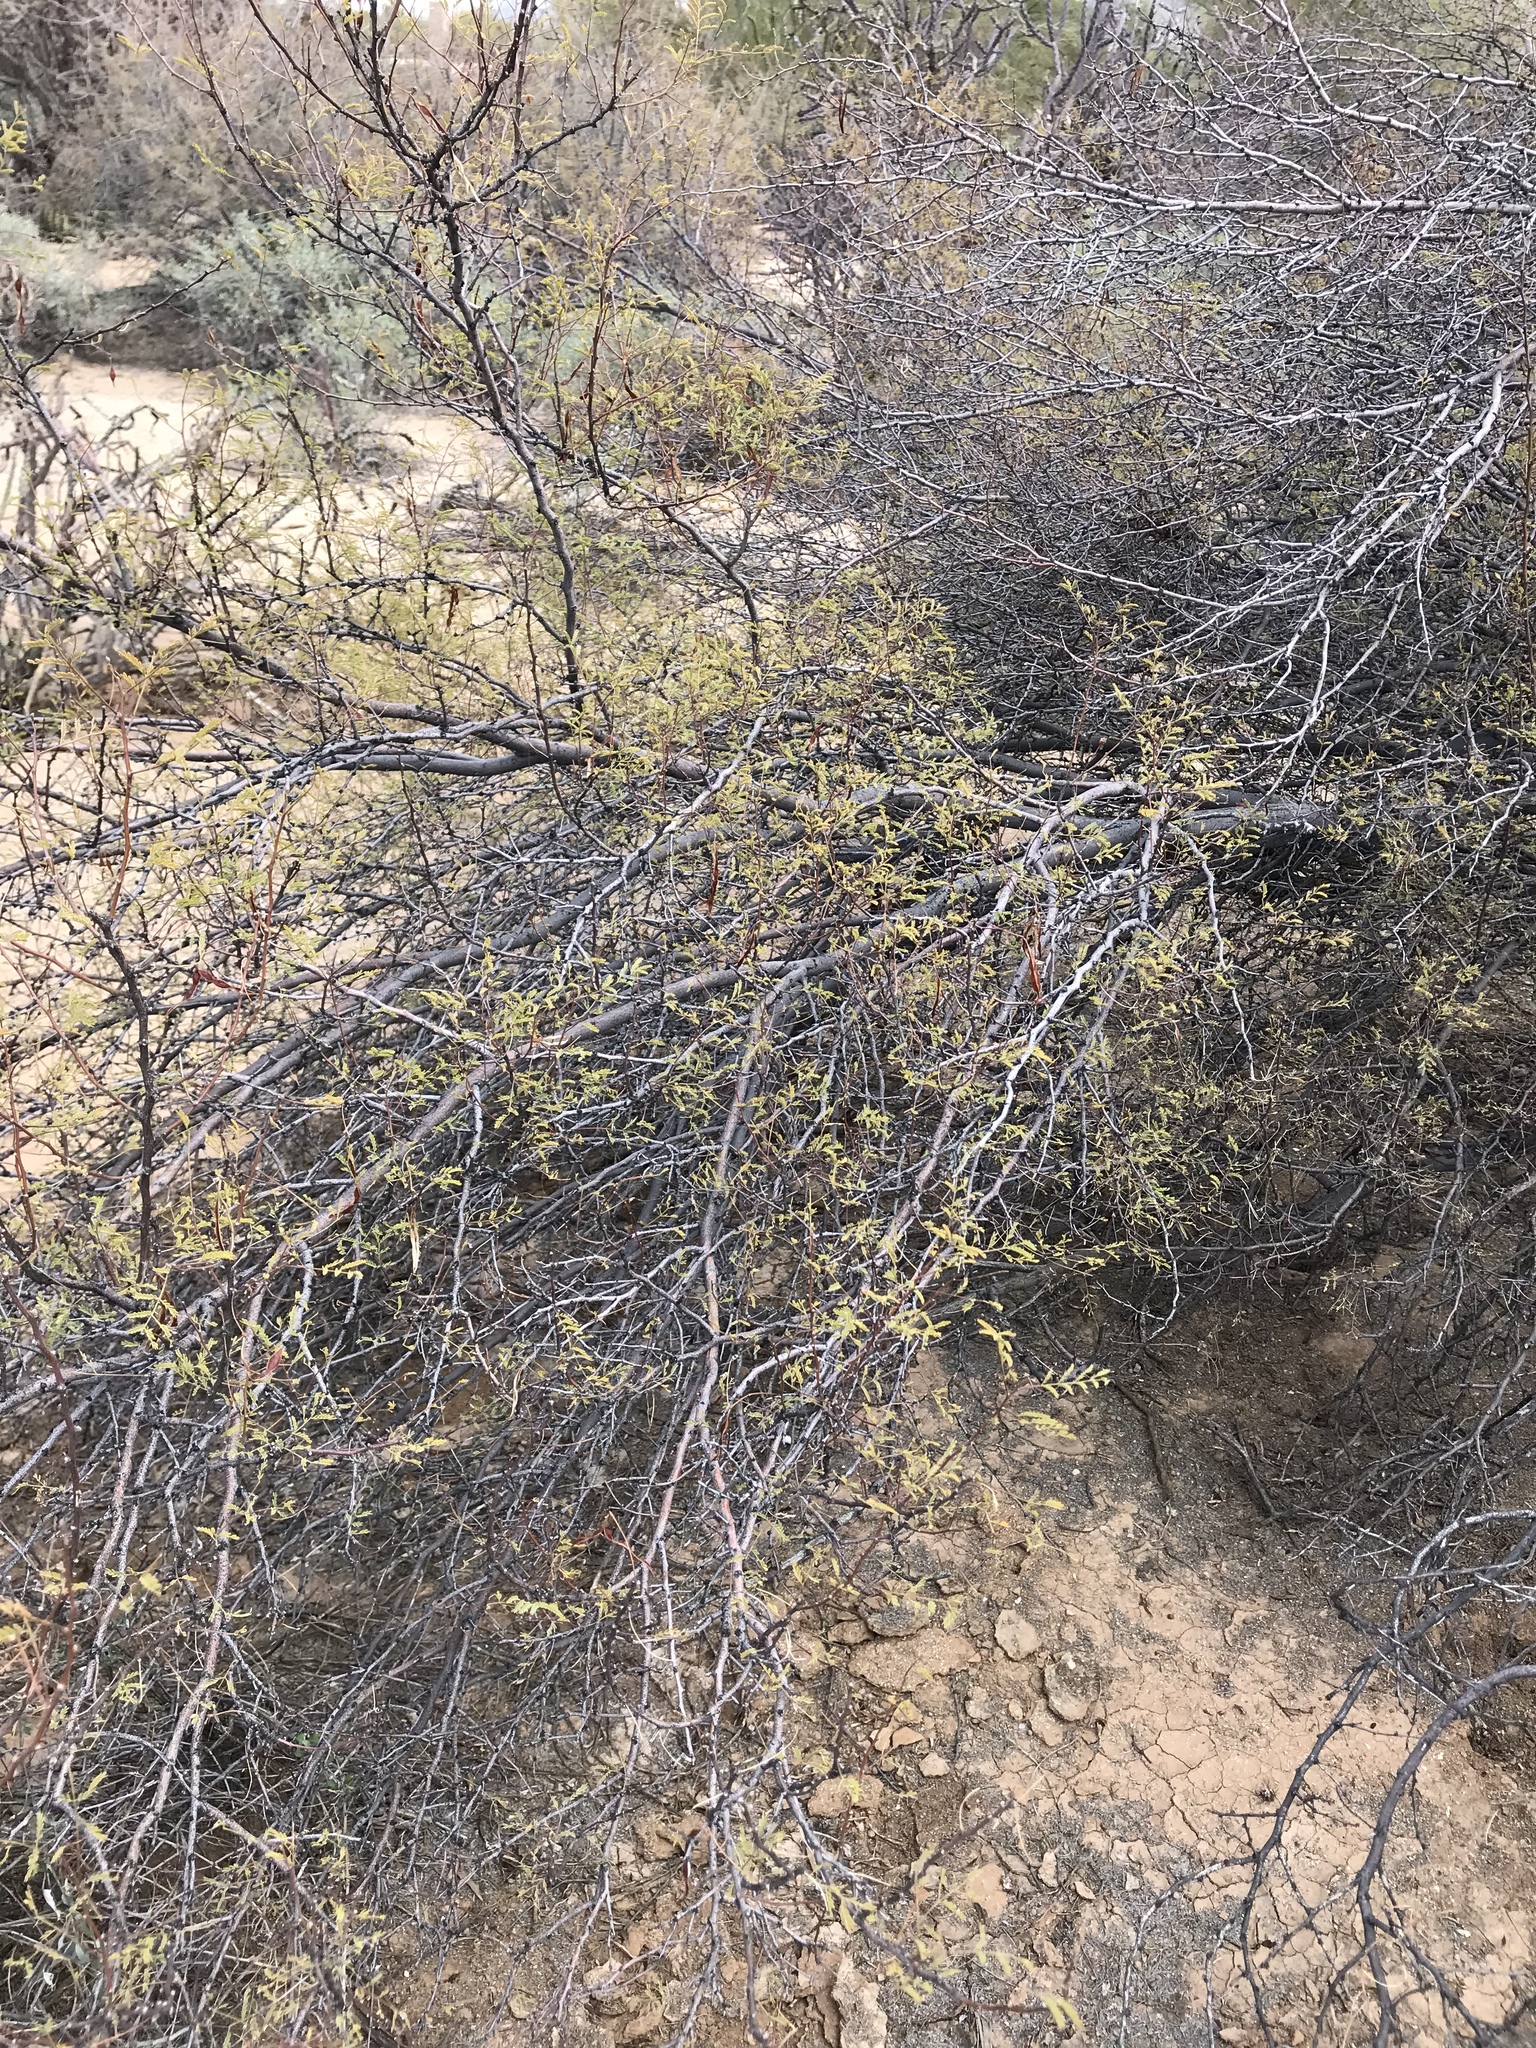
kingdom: Plantae
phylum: Tracheophyta
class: Magnoliopsida
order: Fabales
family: Fabaceae
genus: Vachellia
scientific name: Vachellia constricta
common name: Mescat acacia
